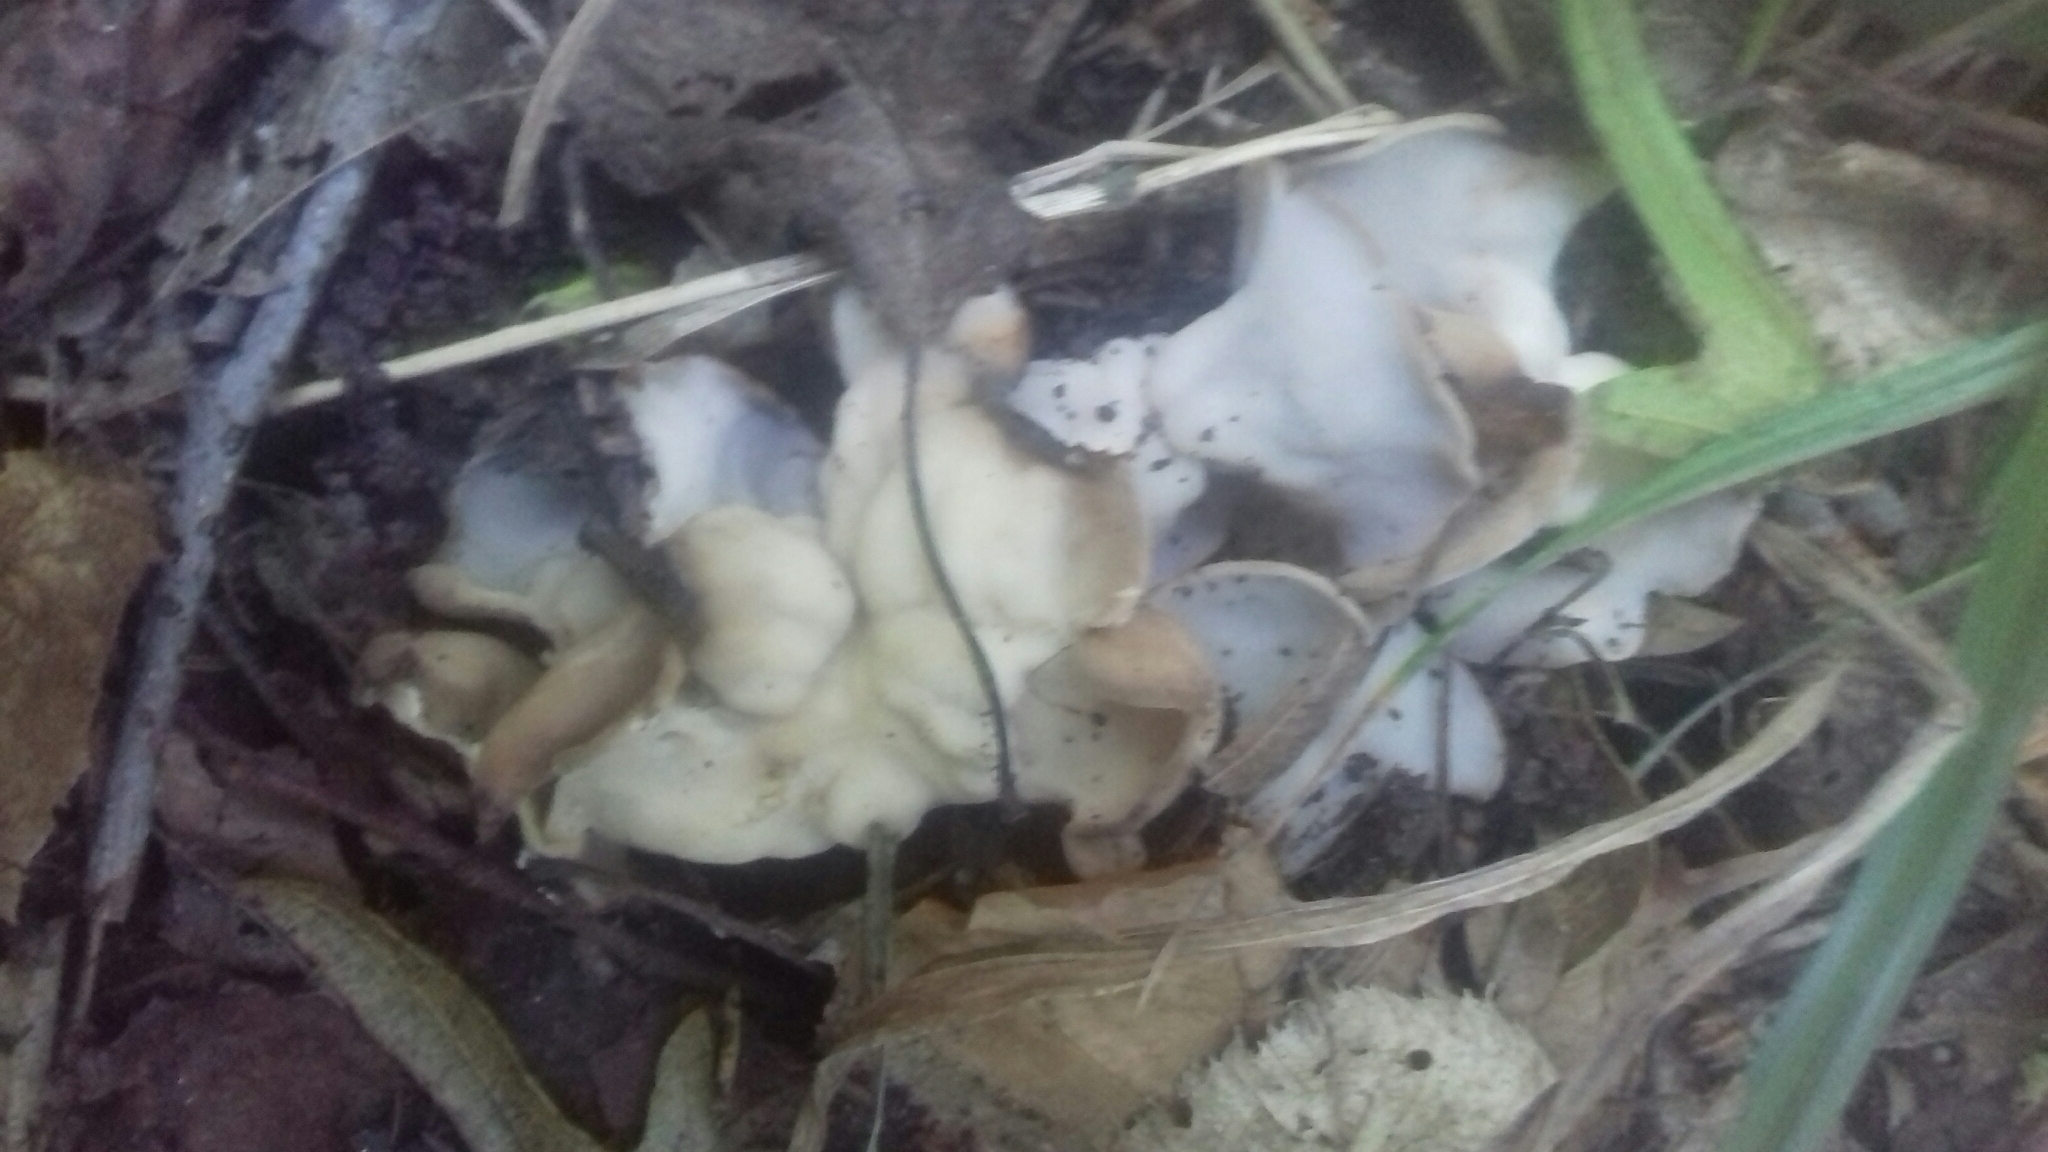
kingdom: Fungi
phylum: Ascomycota
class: Pezizomycetes
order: Pezizales
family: Helvellaceae
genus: Helvella
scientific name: Helvella crispa
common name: White saddle
